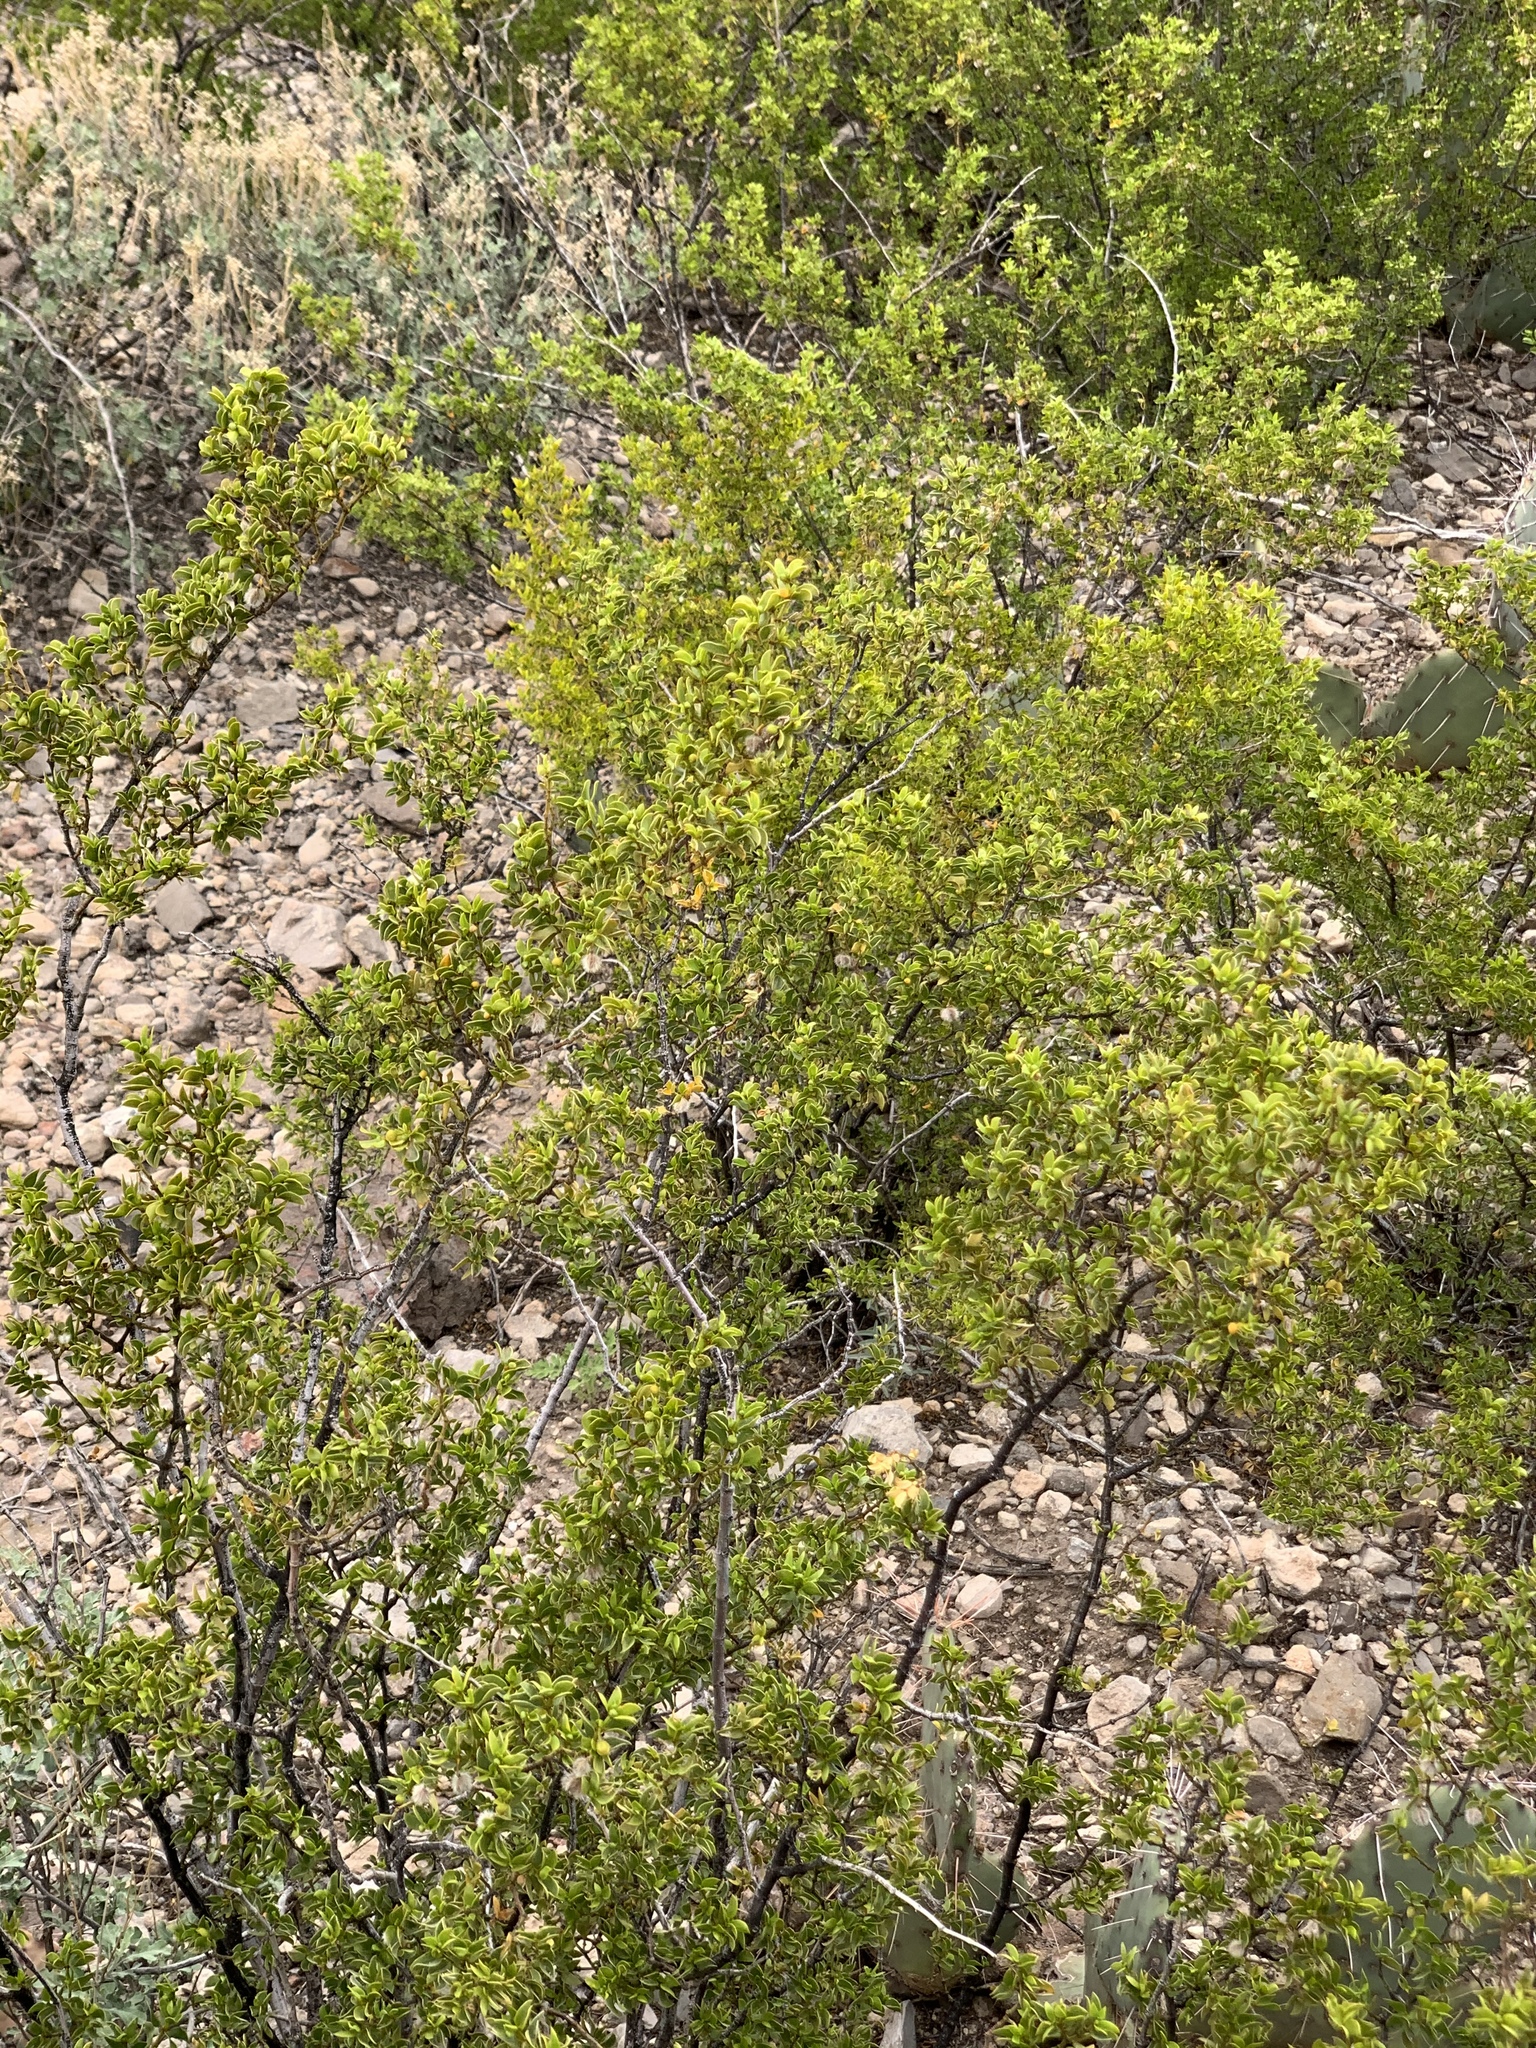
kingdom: Plantae
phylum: Tracheophyta
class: Magnoliopsida
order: Zygophyllales
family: Zygophyllaceae
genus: Larrea
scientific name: Larrea tridentata
